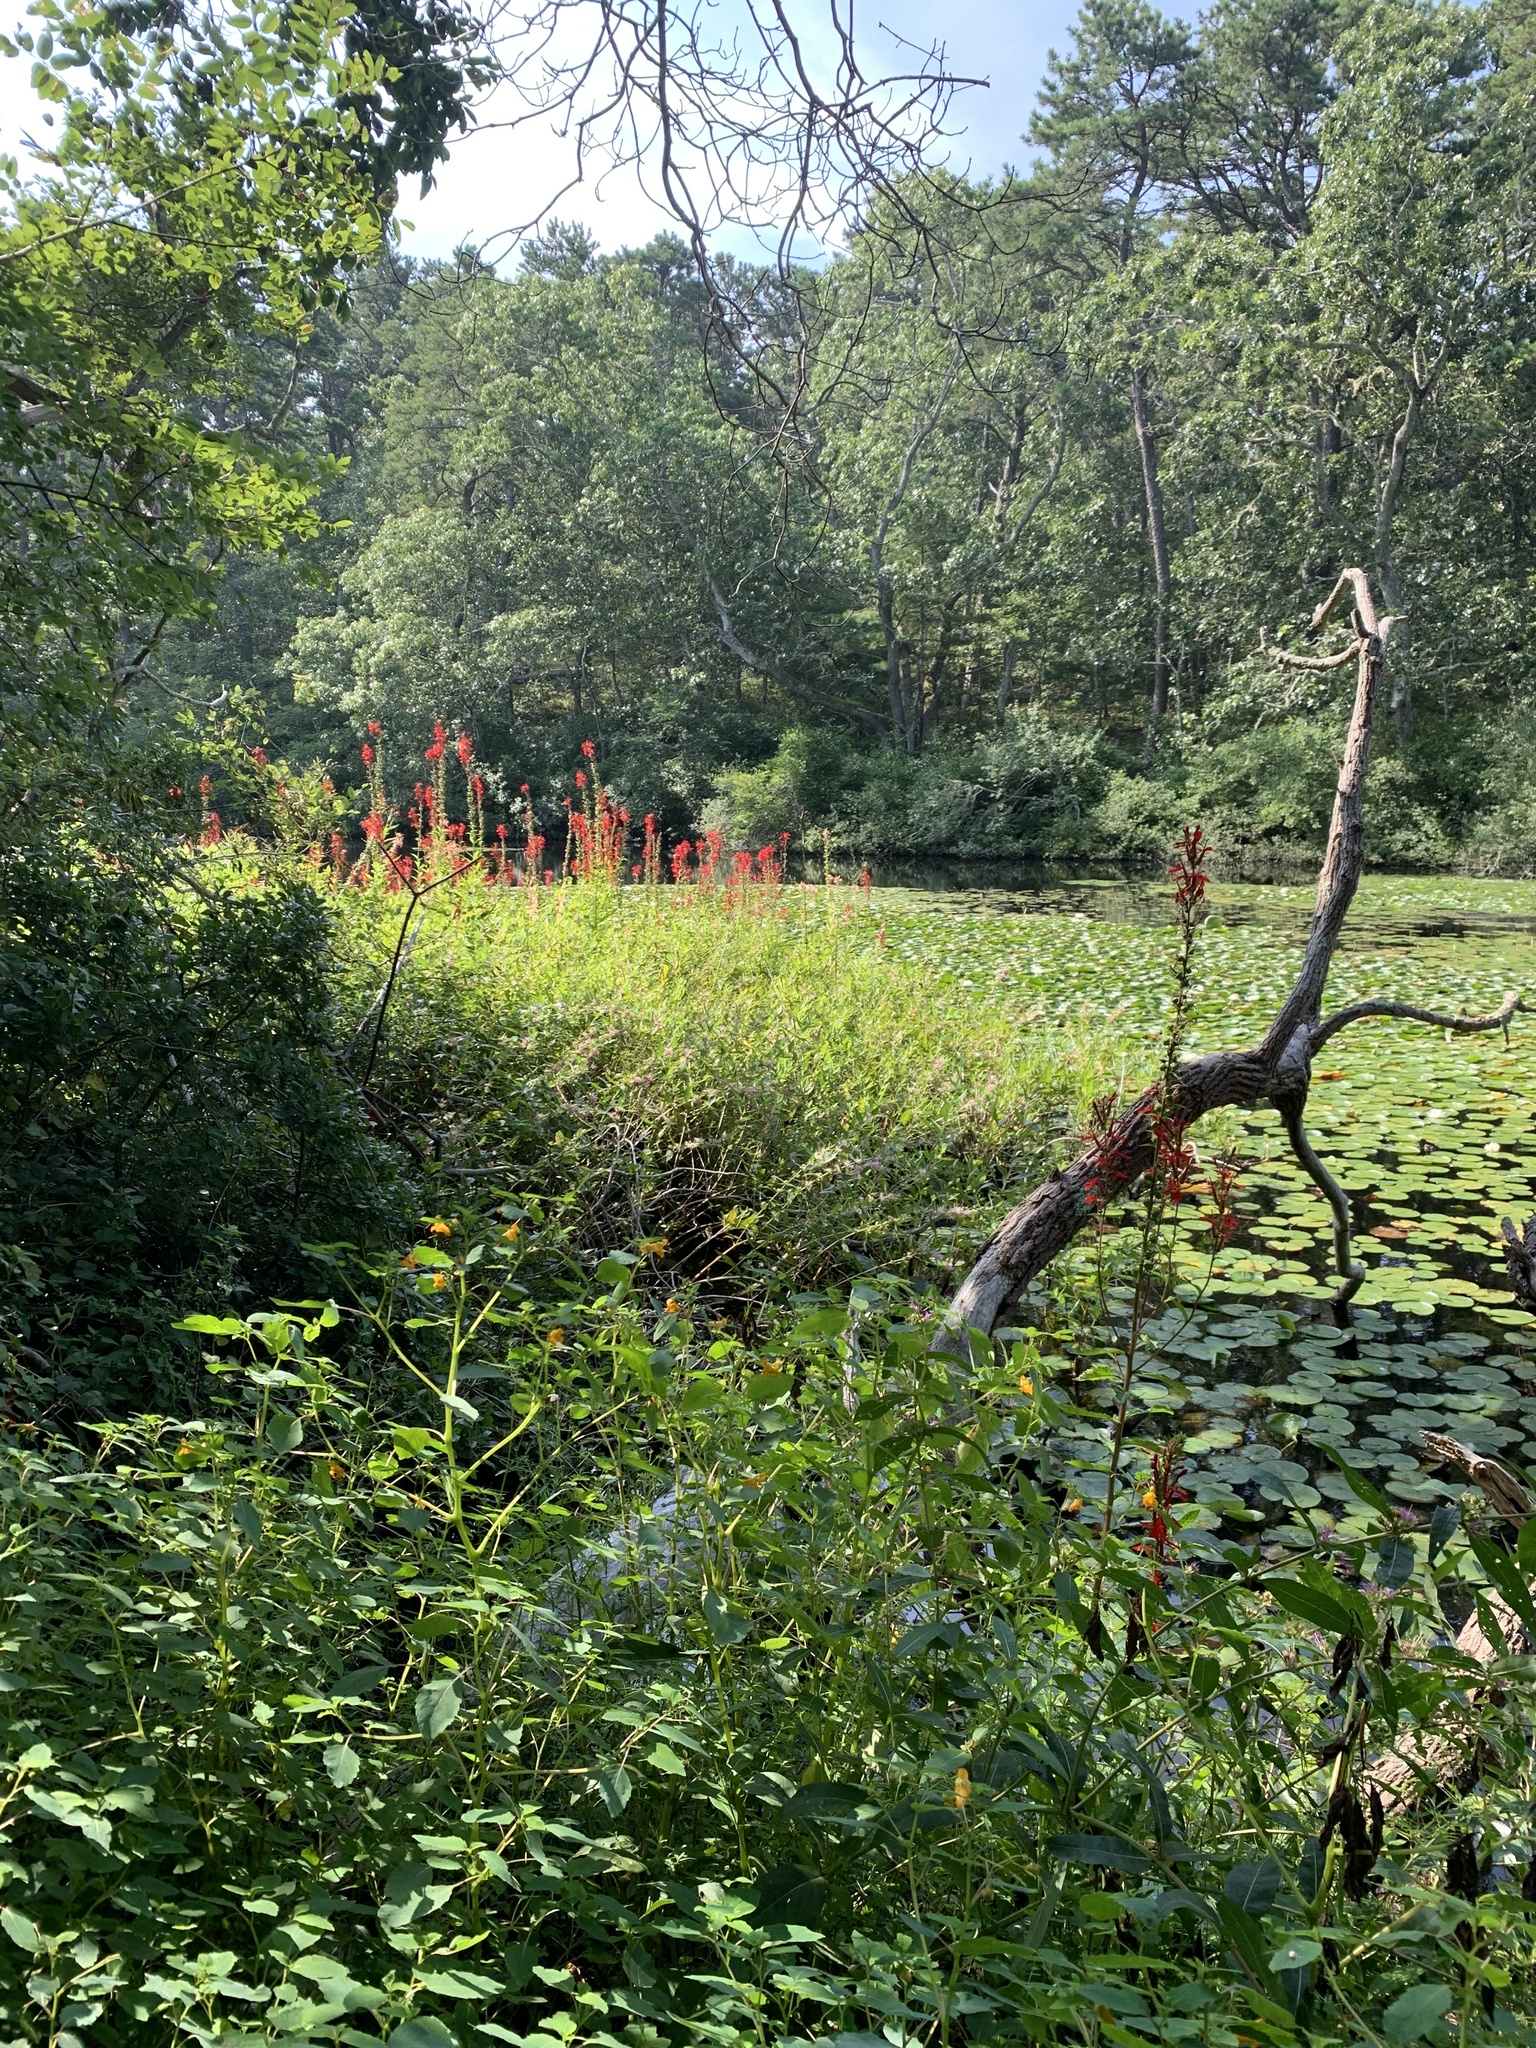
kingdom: Plantae
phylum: Tracheophyta
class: Magnoliopsida
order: Asterales
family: Campanulaceae
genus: Lobelia
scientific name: Lobelia cardinalis
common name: Cardinal flower
